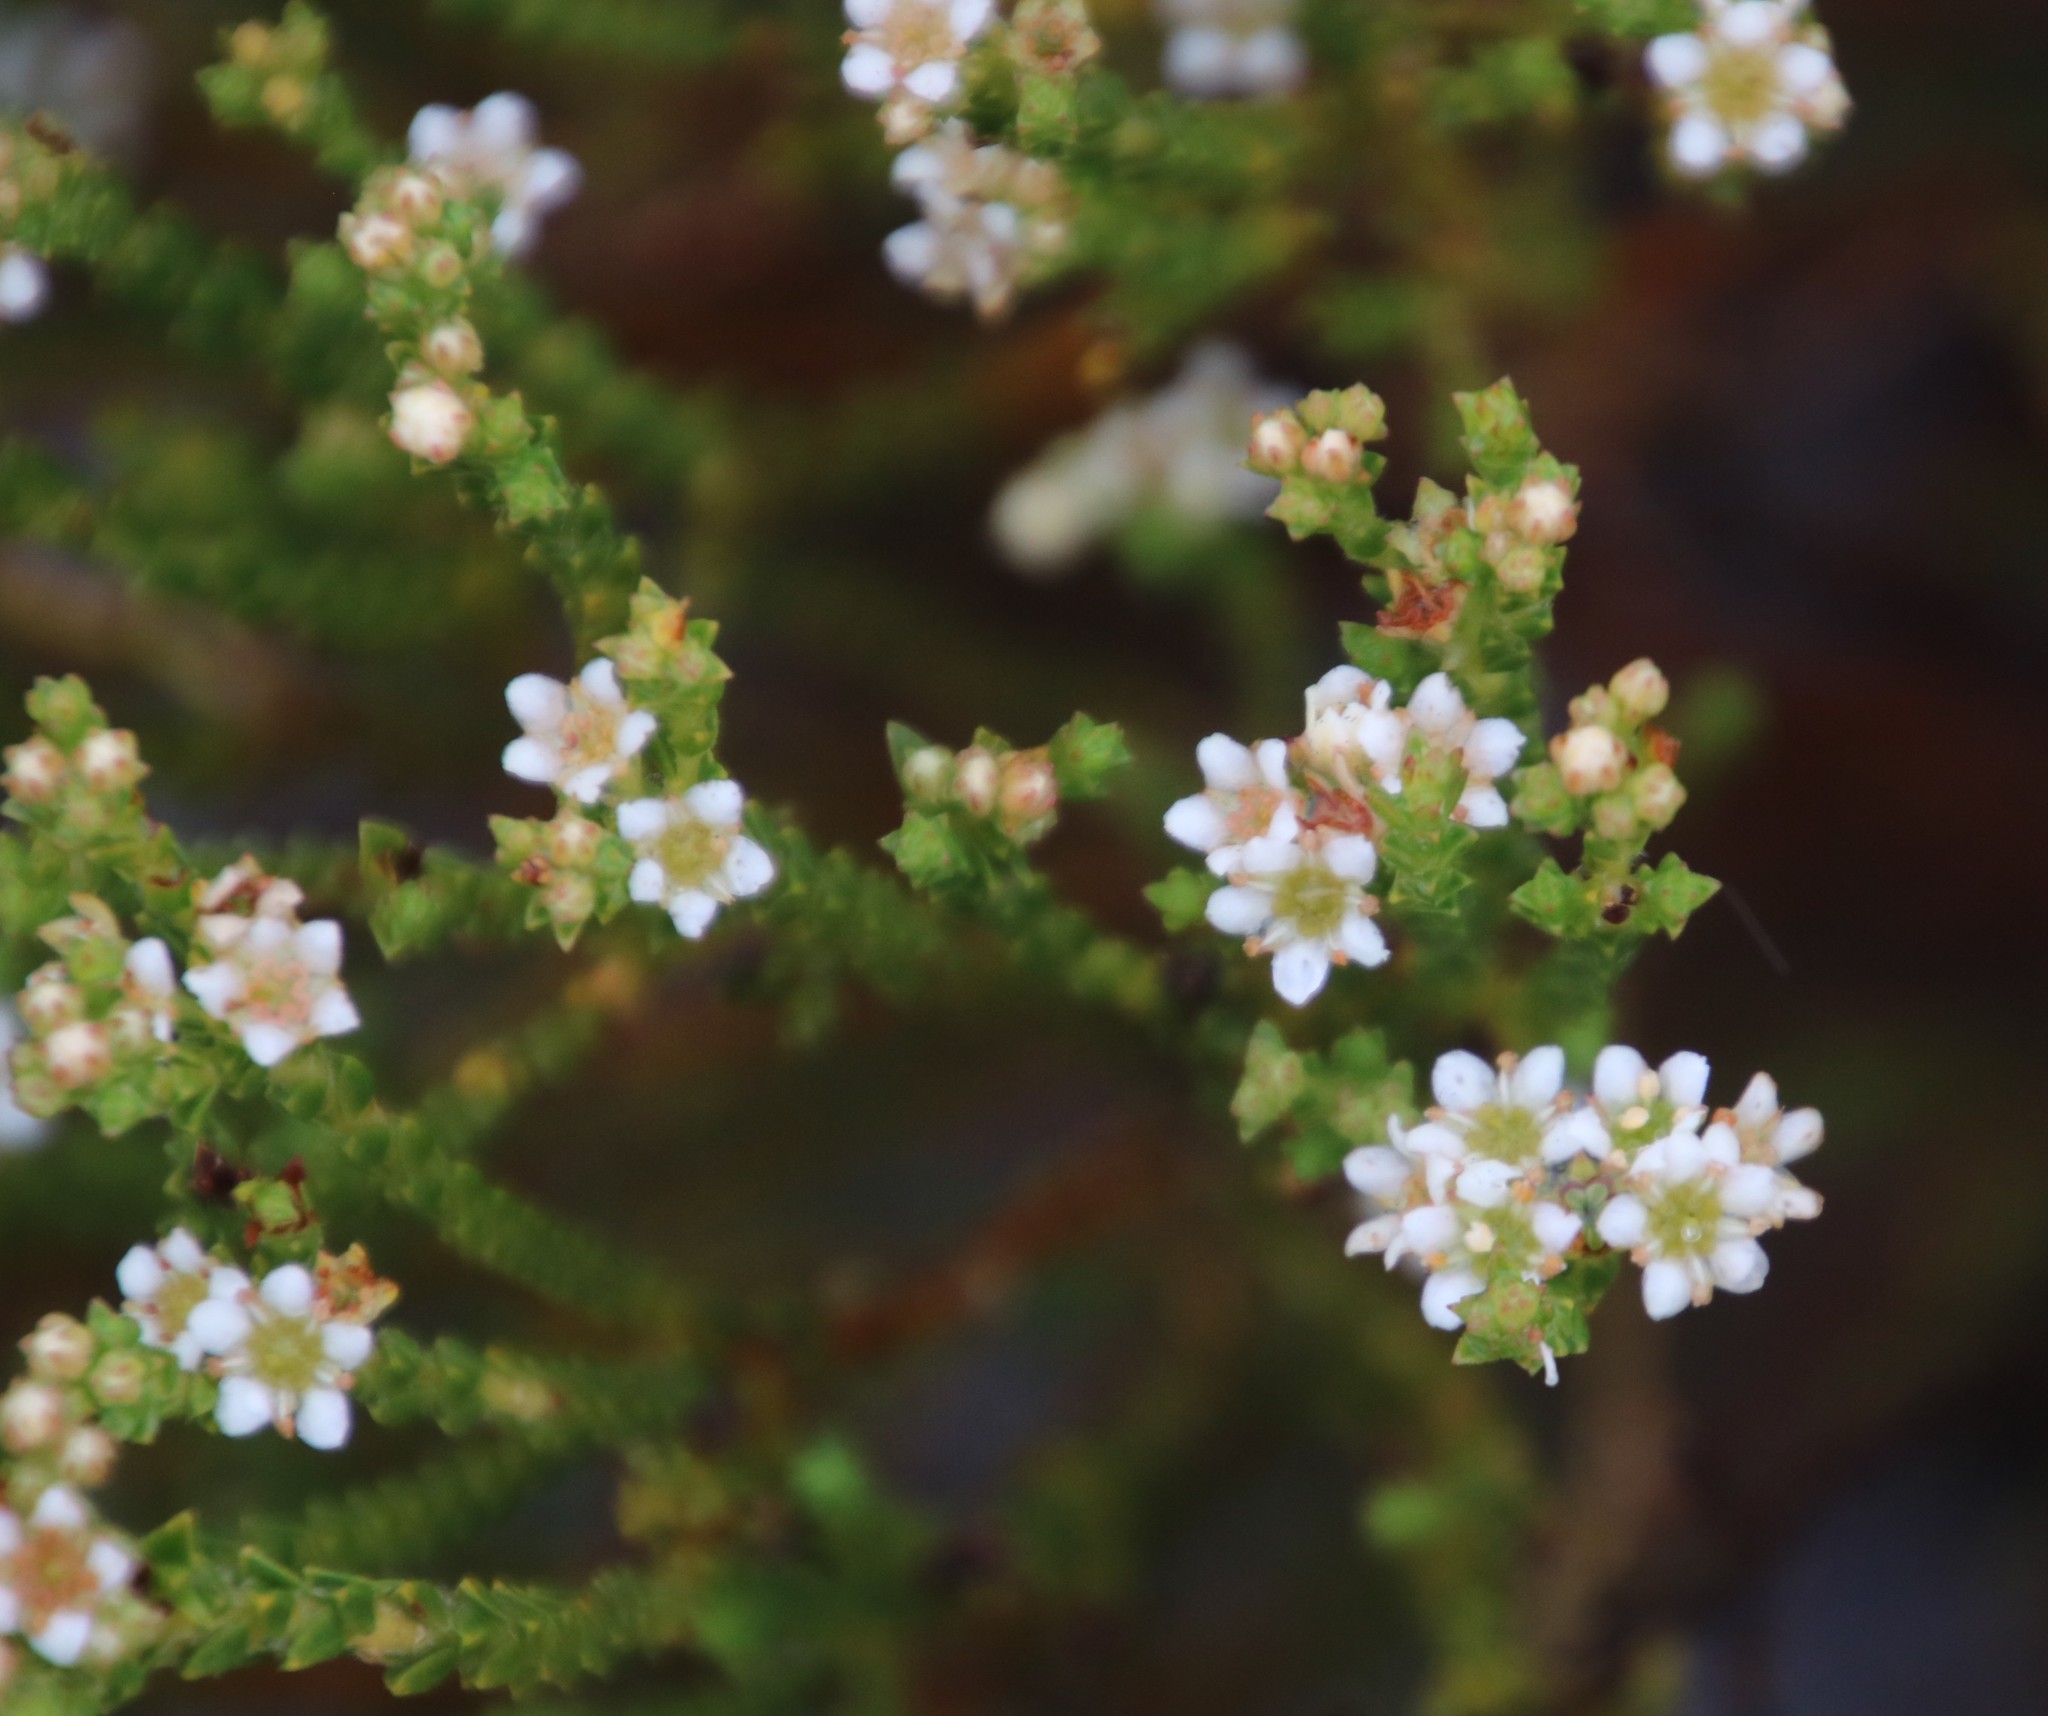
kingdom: Plantae
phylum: Tracheophyta
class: Magnoliopsida
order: Sapindales
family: Rutaceae
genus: Diosma
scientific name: Diosma oppositifolia
